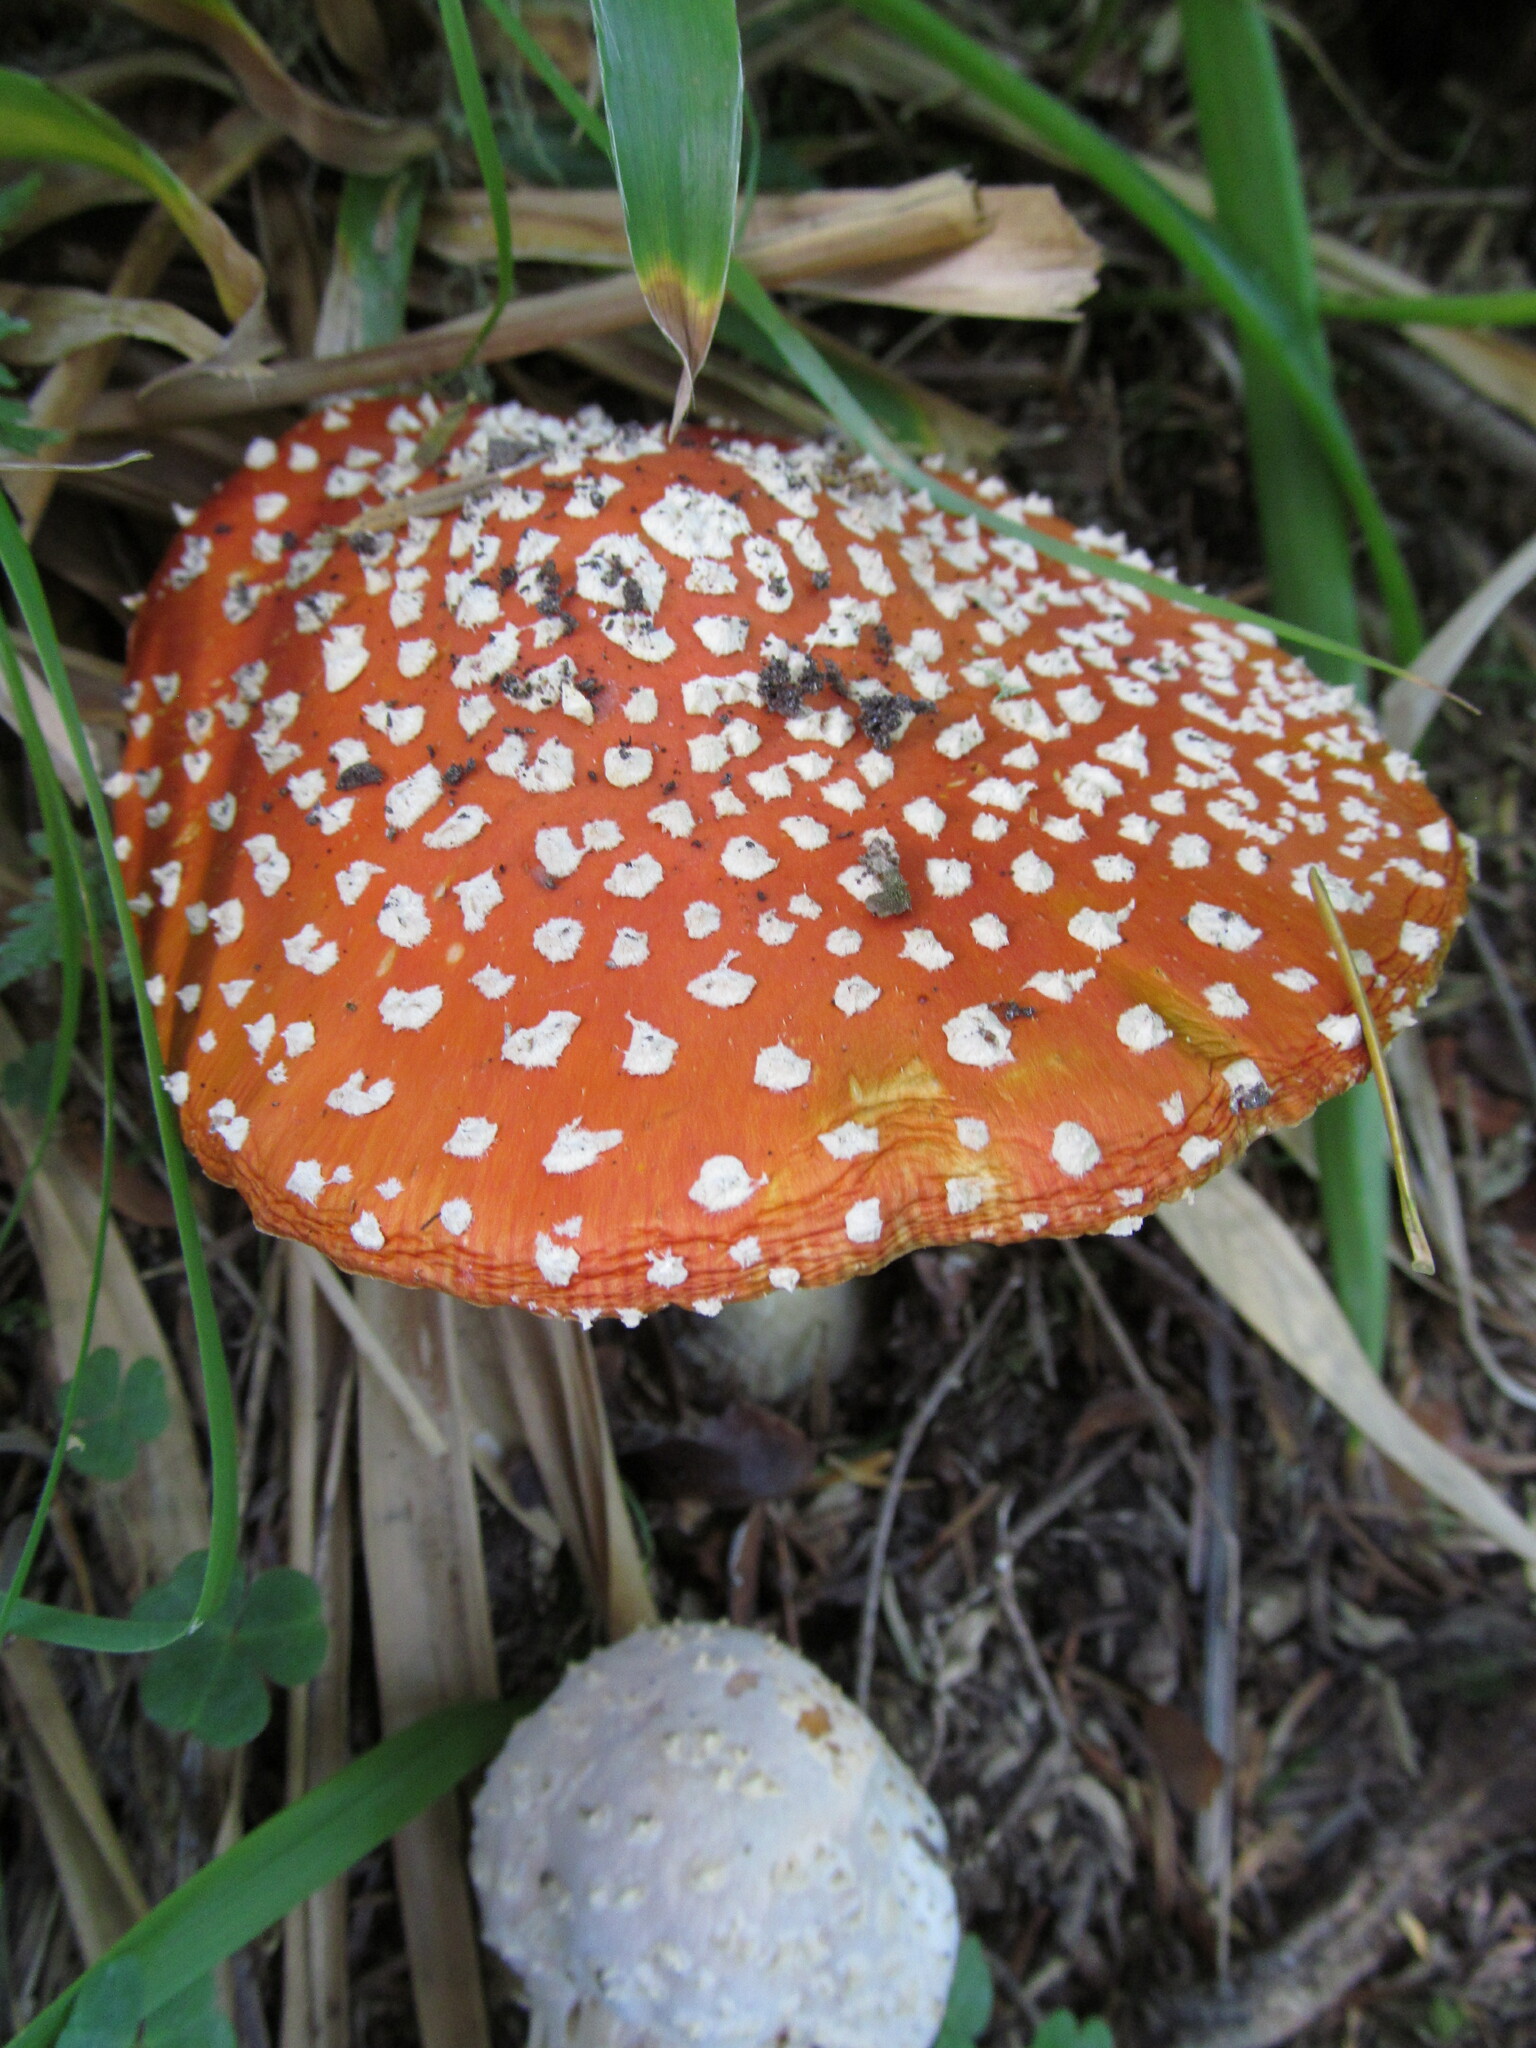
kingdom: Fungi
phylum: Basidiomycota
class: Agaricomycetes
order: Agaricales
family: Amanitaceae
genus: Amanita
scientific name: Amanita muscaria
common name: Fly agaric
